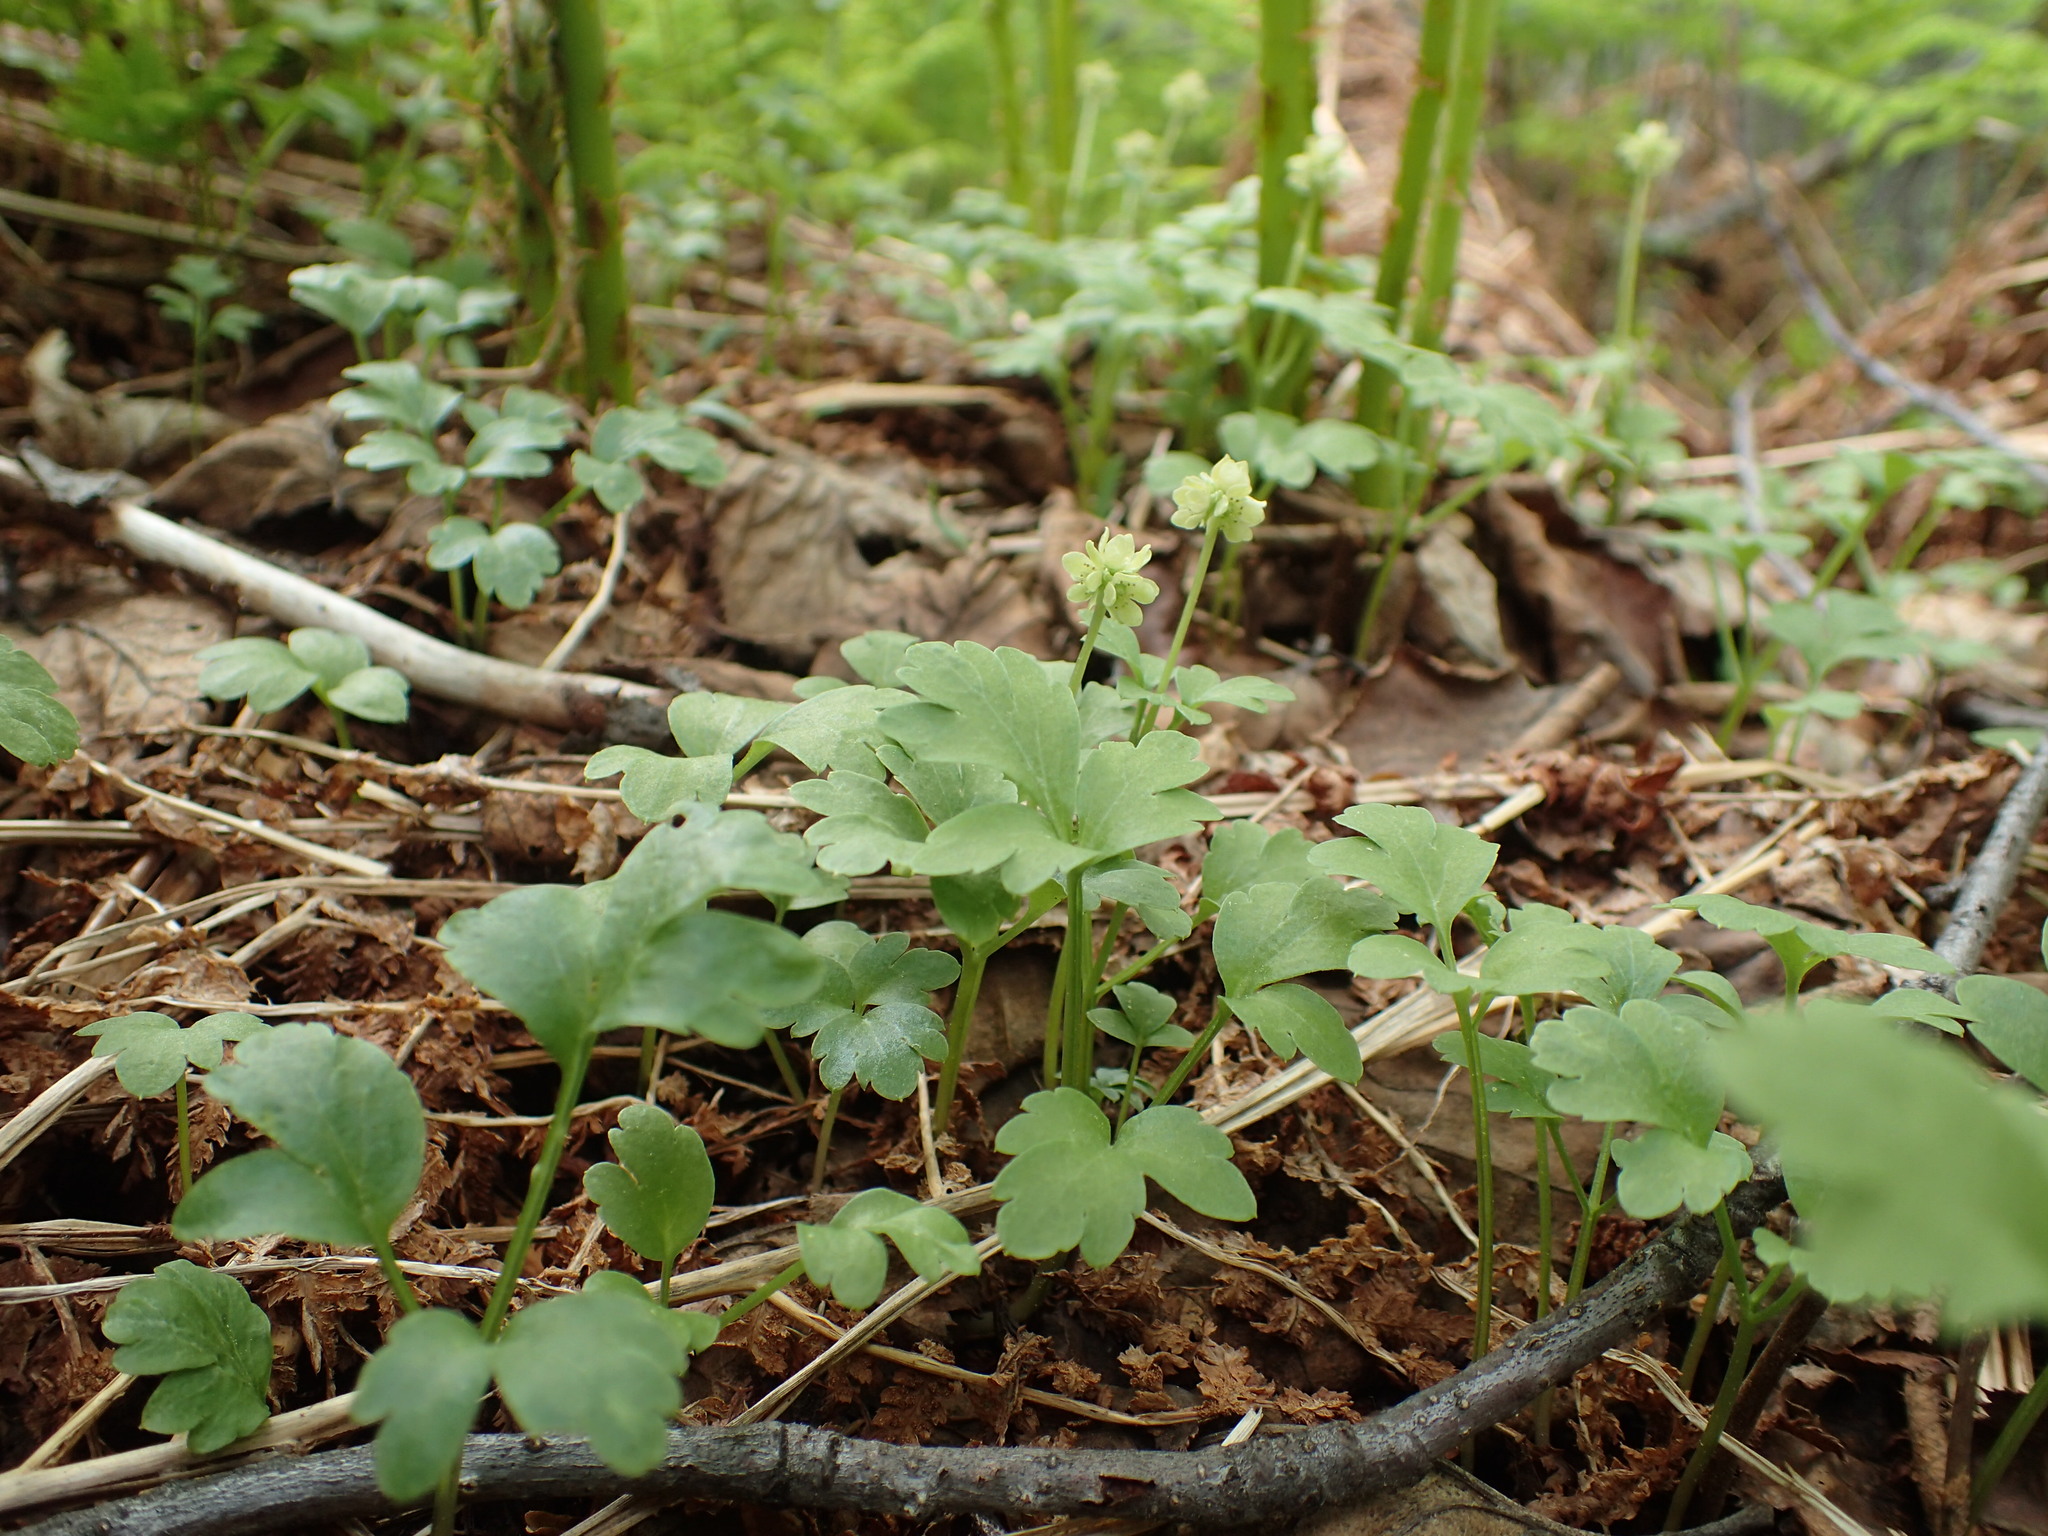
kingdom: Plantae
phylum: Tracheophyta
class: Magnoliopsida
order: Dipsacales
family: Viburnaceae
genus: Adoxa
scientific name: Adoxa moschatellina
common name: Moschatel
